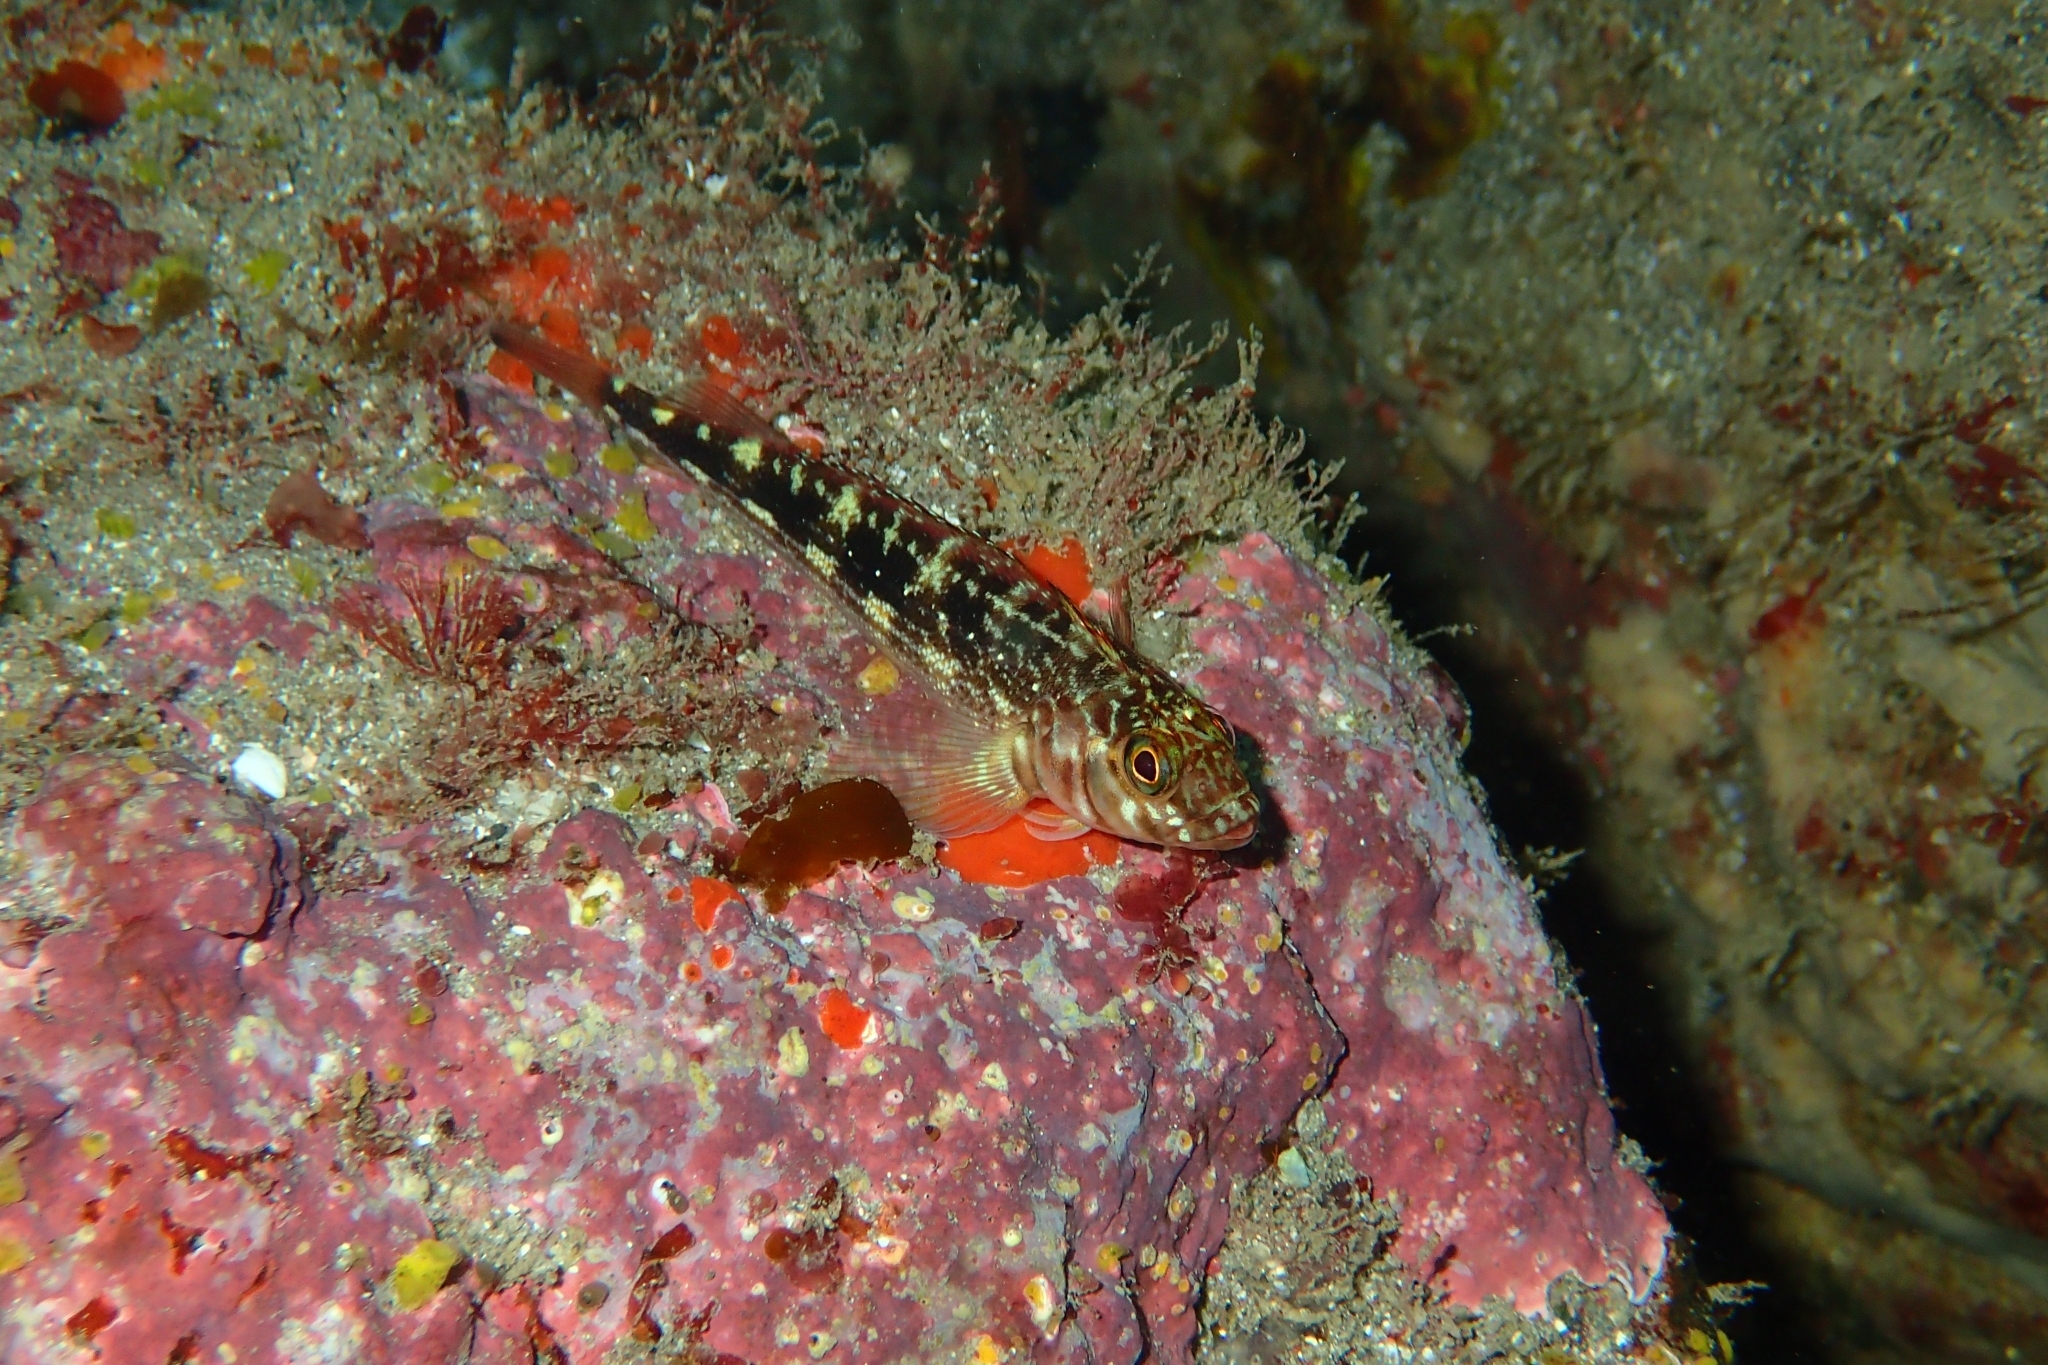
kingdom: Animalia
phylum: Chordata
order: Perciformes
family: Tripterygiidae
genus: Forsterygion
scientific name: Forsterygion varium
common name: Variable triplefin
